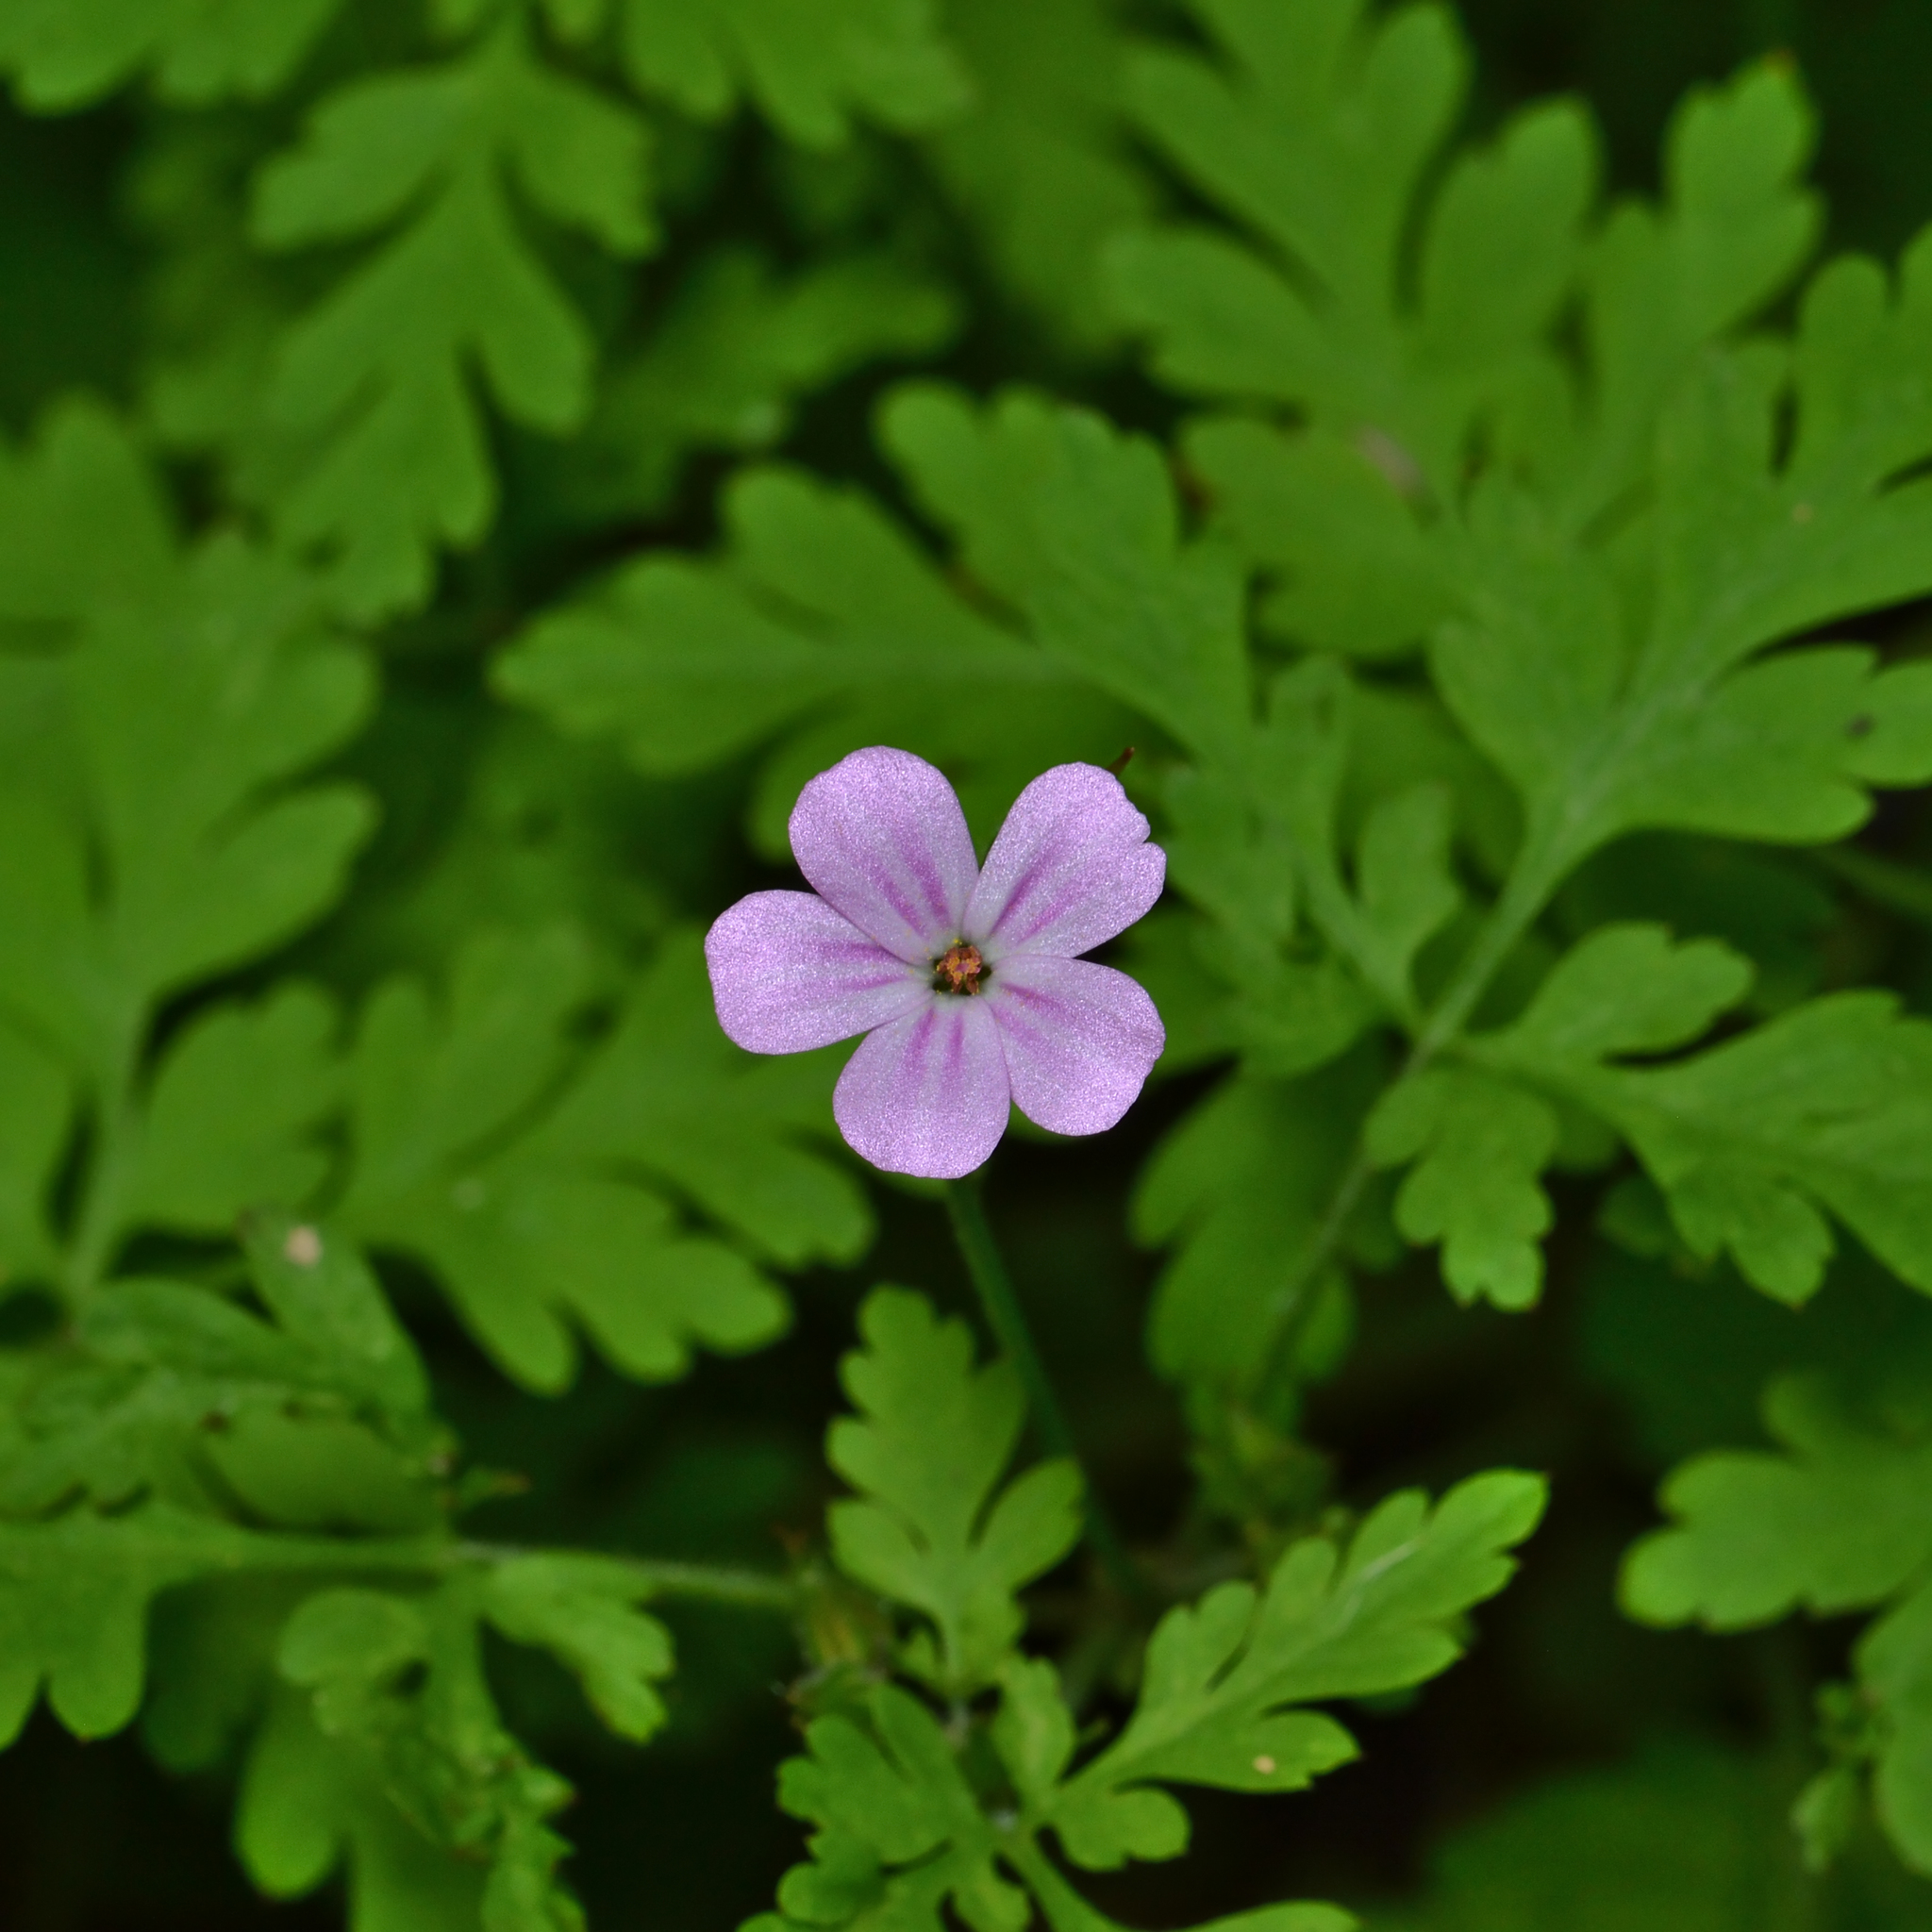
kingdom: Plantae
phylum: Tracheophyta
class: Magnoliopsida
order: Geraniales
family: Geraniaceae
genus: Geranium
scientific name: Geranium robertianum
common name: Herb-robert
